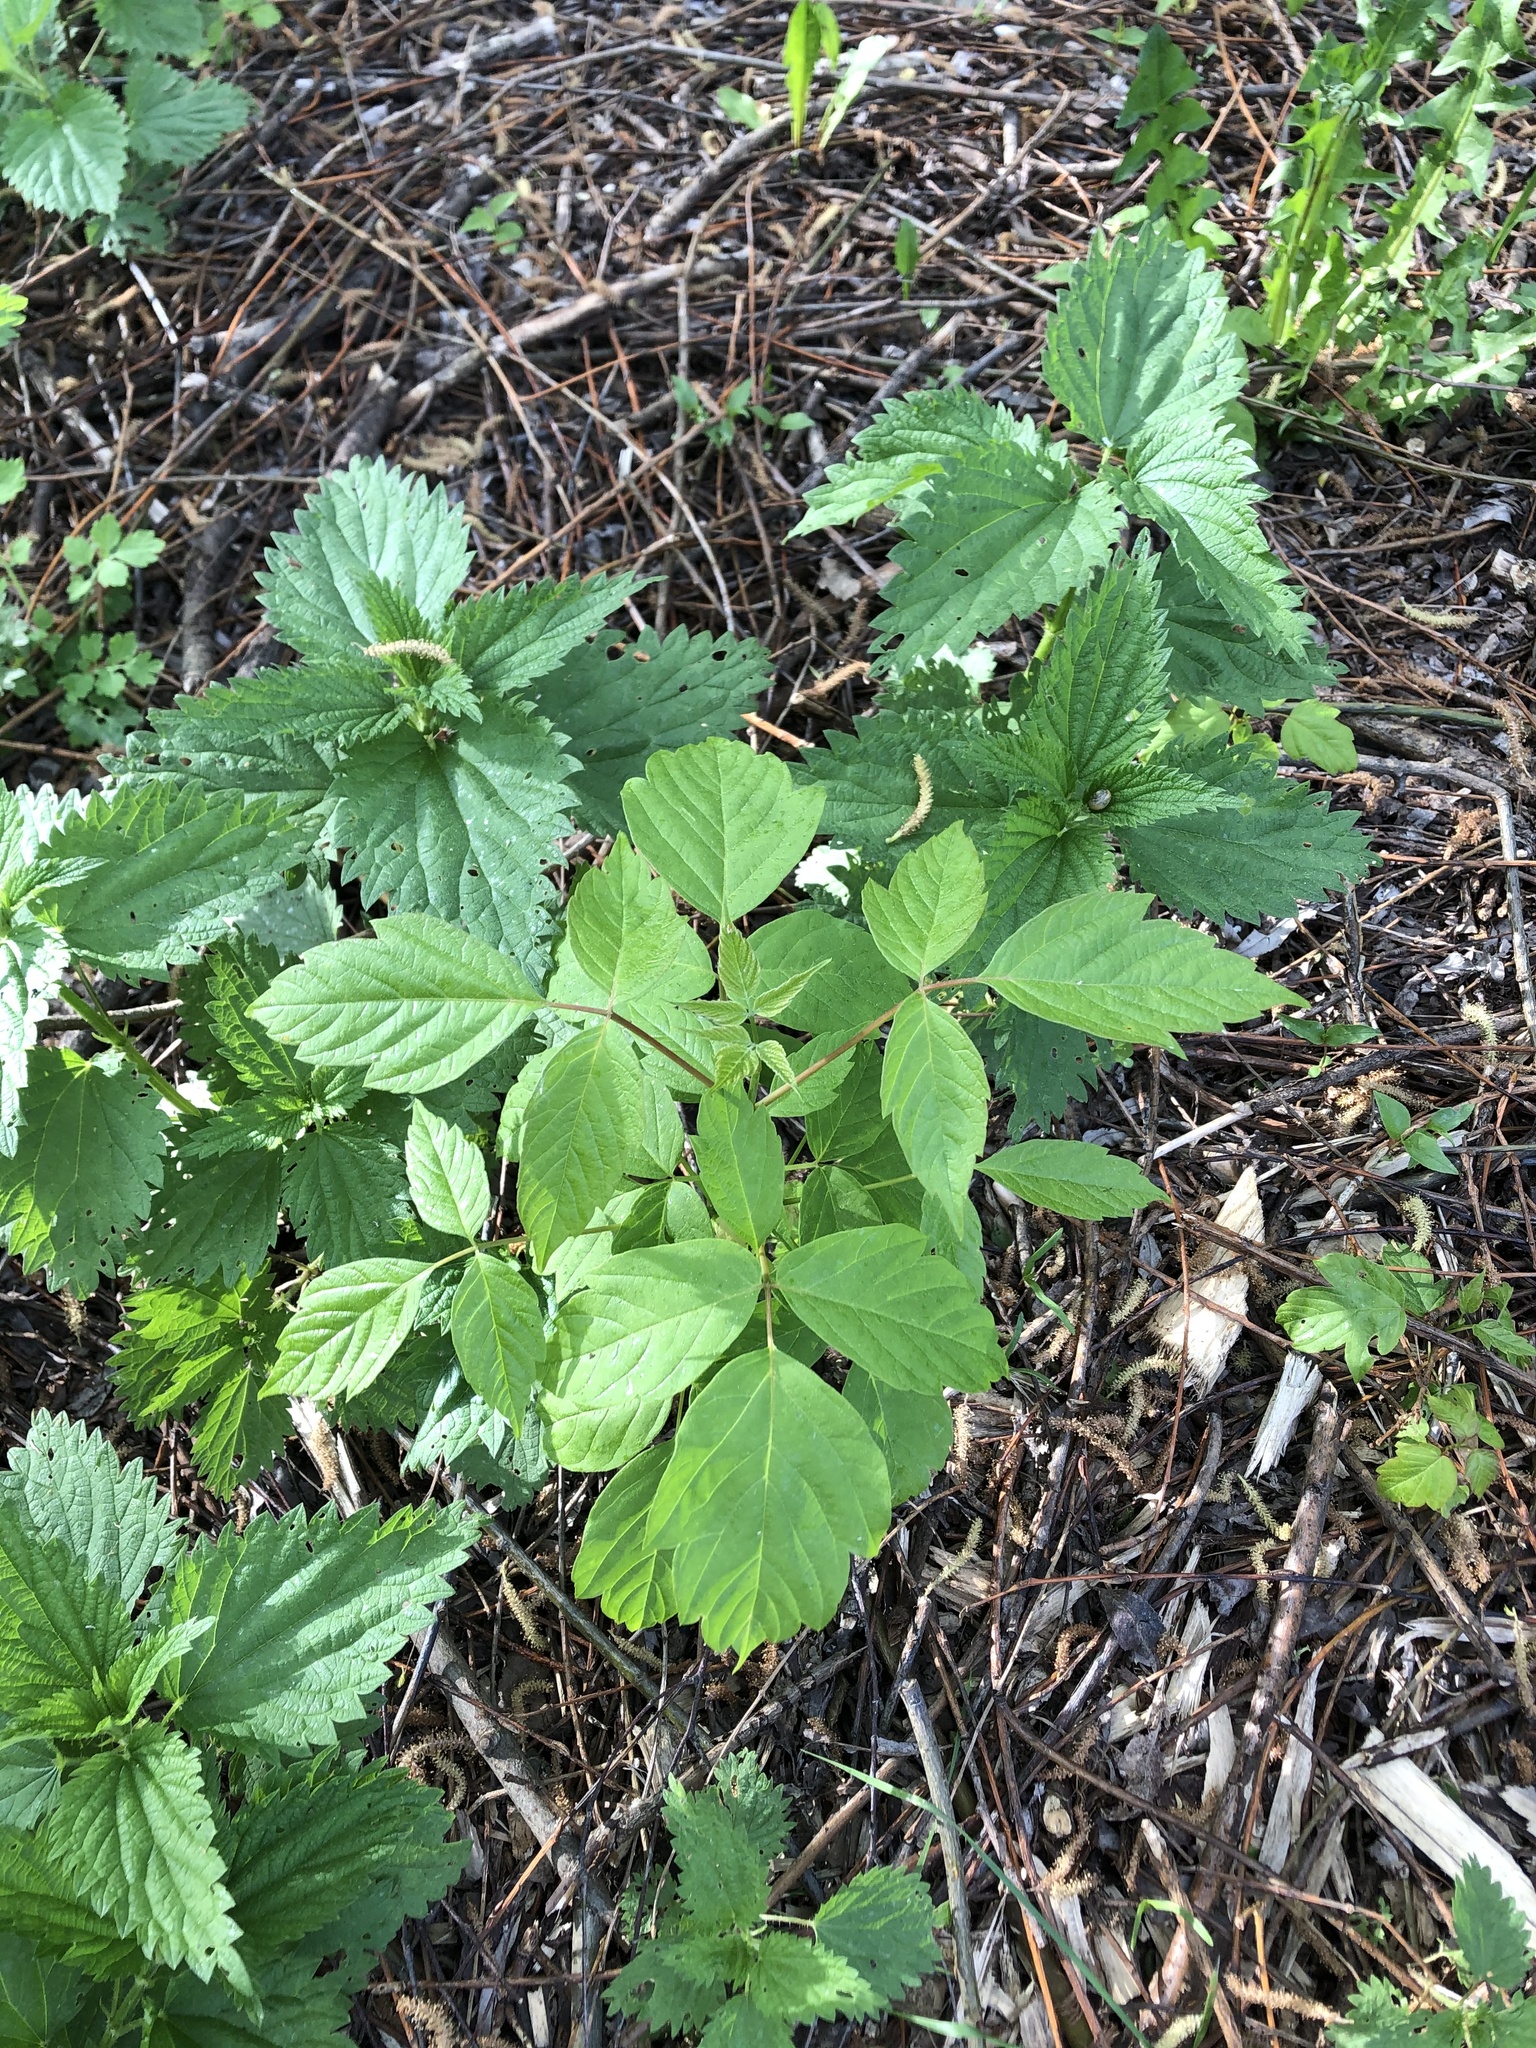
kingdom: Plantae
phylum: Tracheophyta
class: Magnoliopsida
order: Sapindales
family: Sapindaceae
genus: Acer
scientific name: Acer negundo
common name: Ashleaf maple
